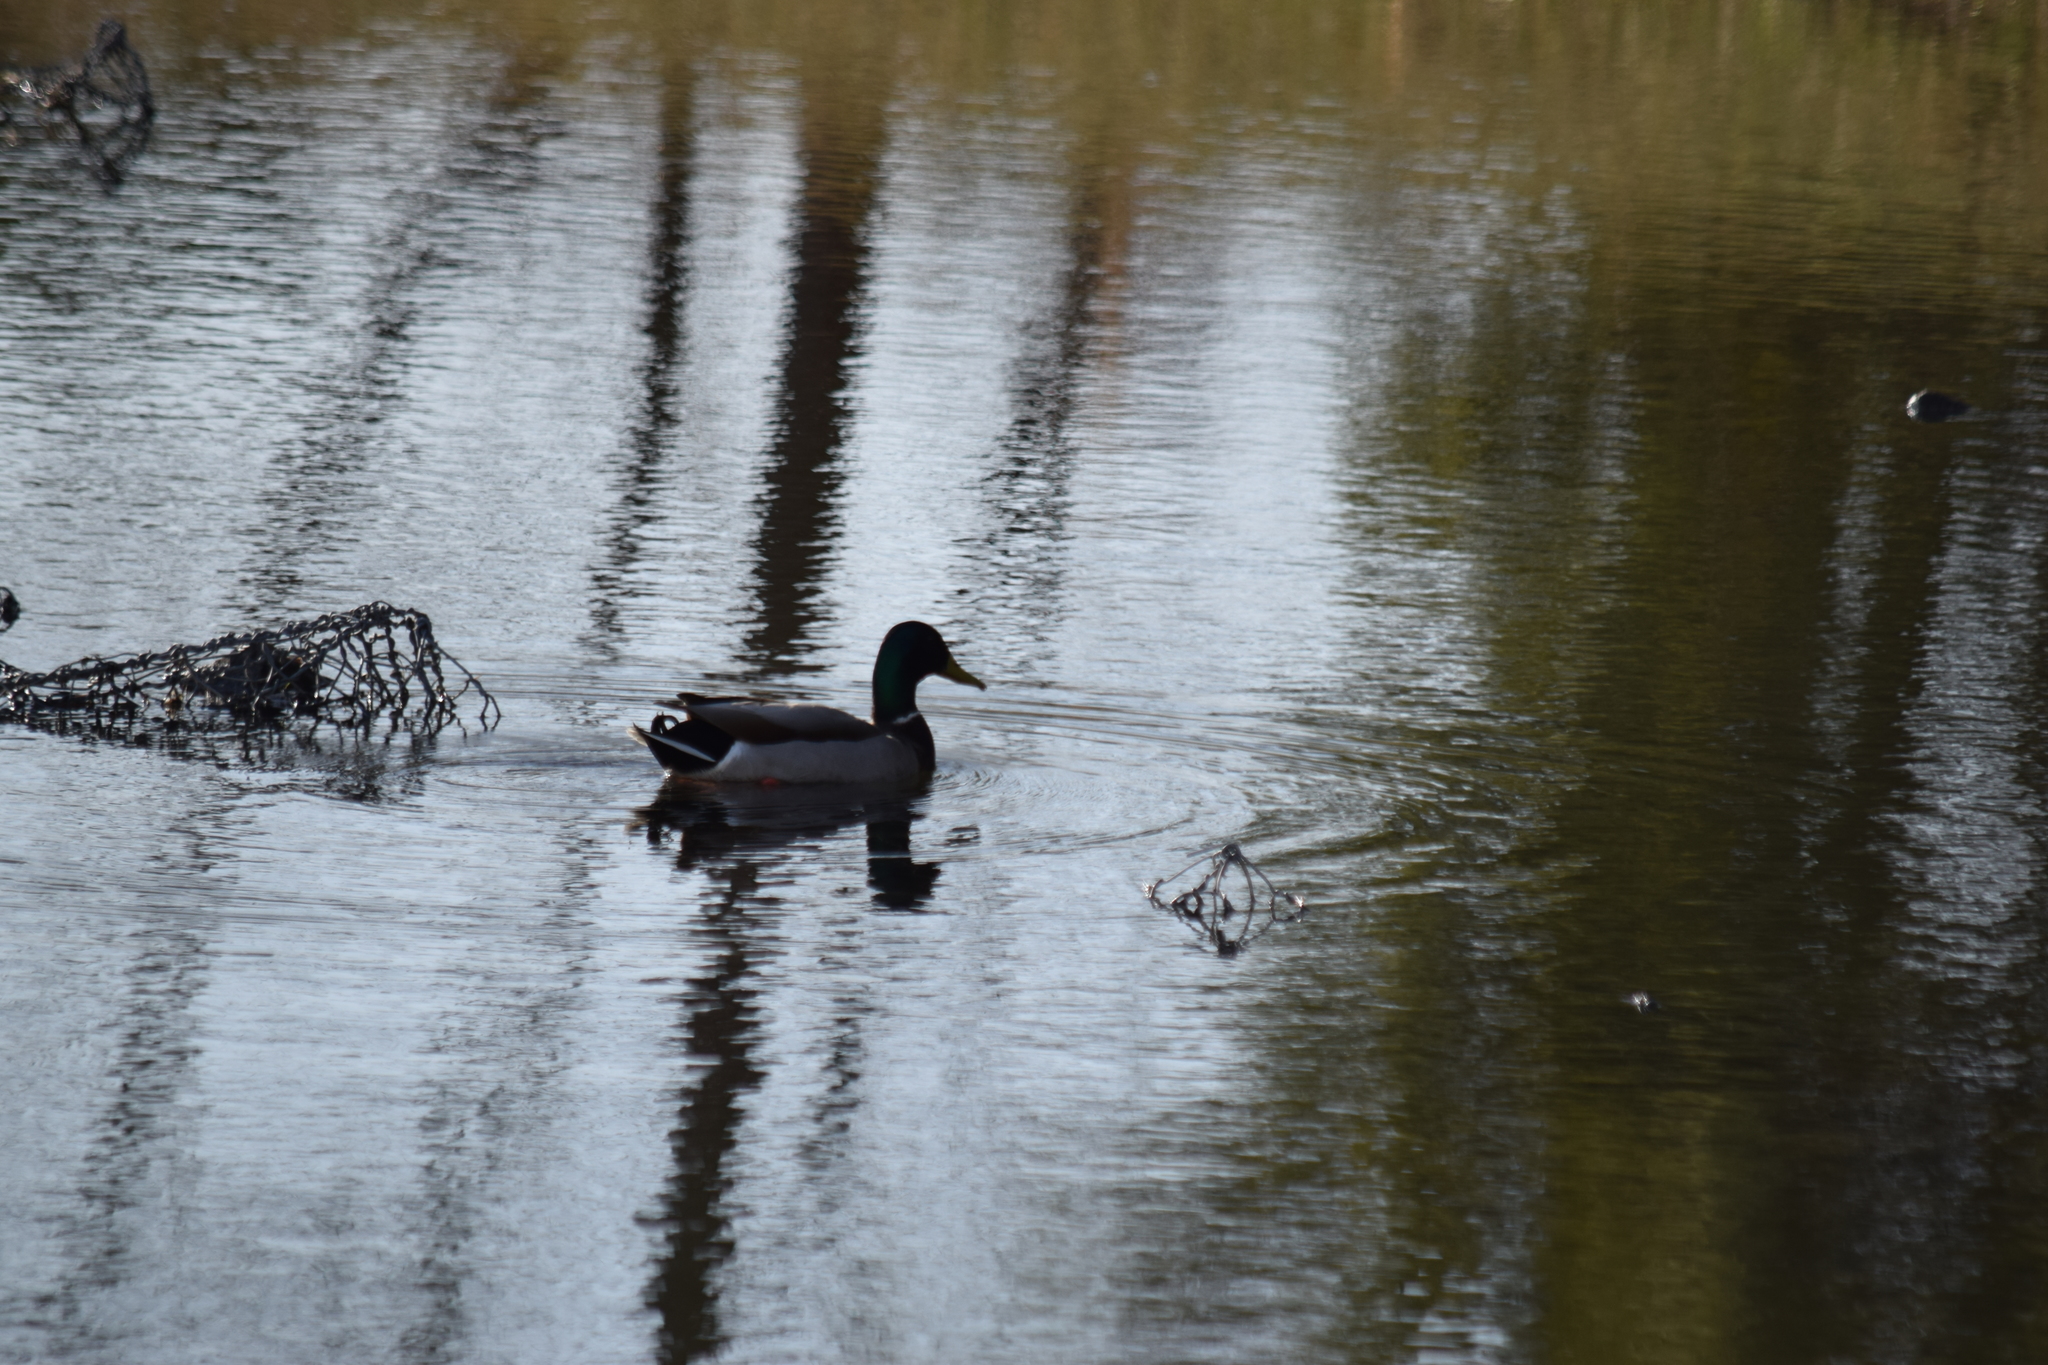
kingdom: Animalia
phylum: Chordata
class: Aves
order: Anseriformes
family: Anatidae
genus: Anas
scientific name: Anas platyrhynchos
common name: Mallard
